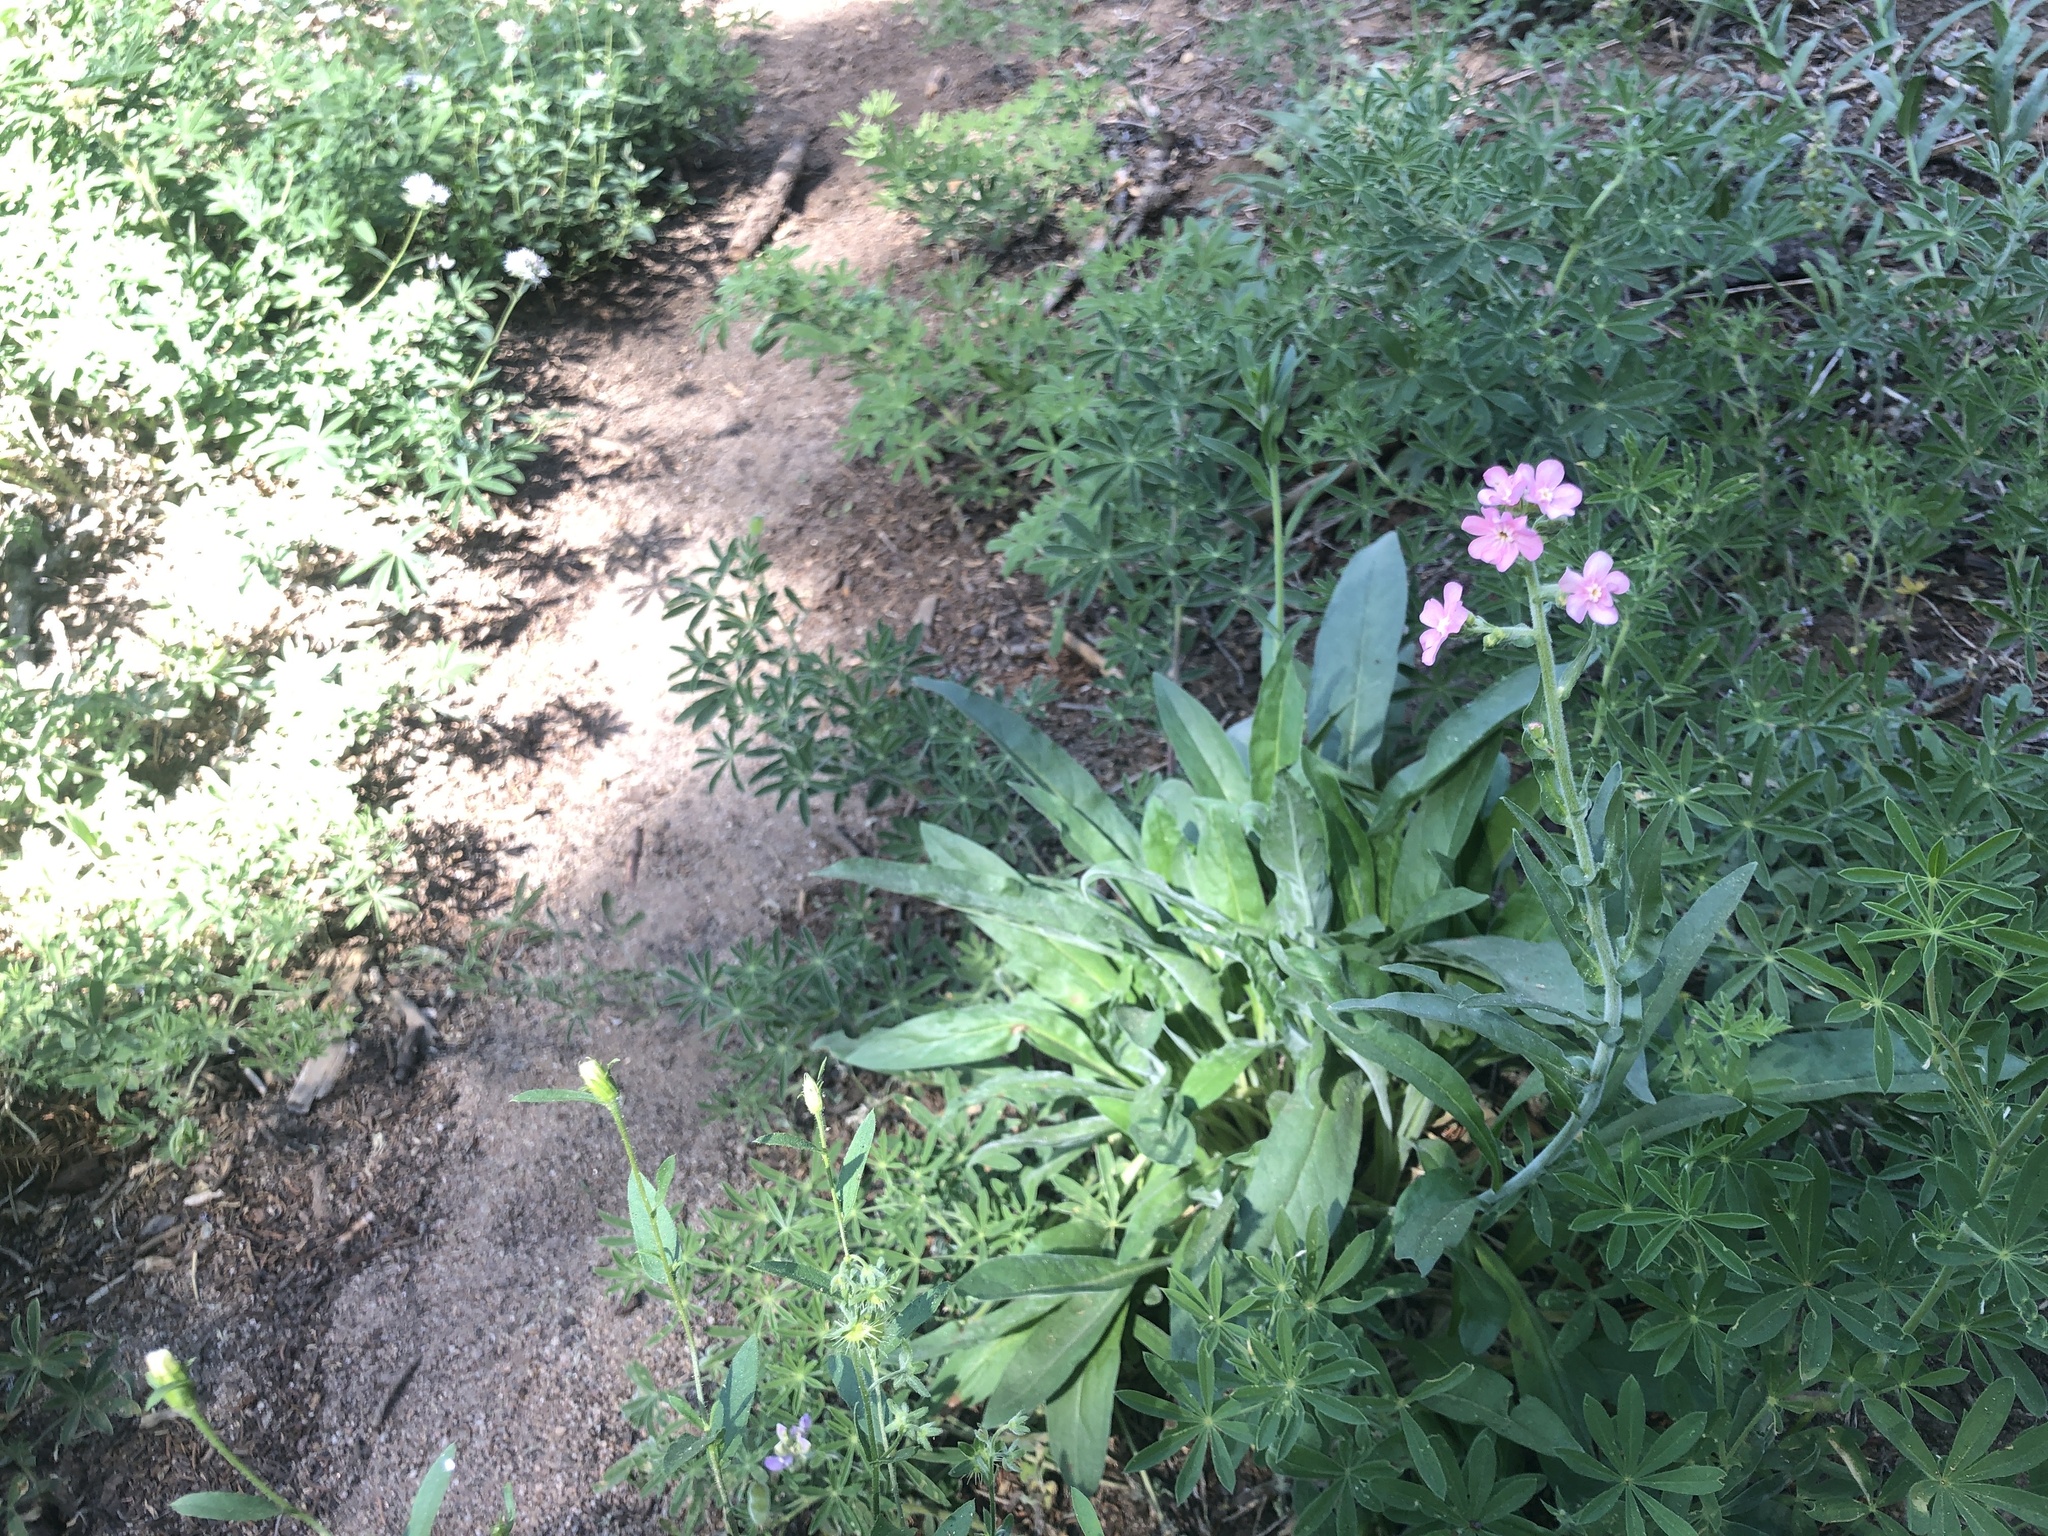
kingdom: Plantae
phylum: Tracheophyta
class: Magnoliopsida
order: Boraginales
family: Boraginaceae
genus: Hackelia
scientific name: Hackelia mundula
